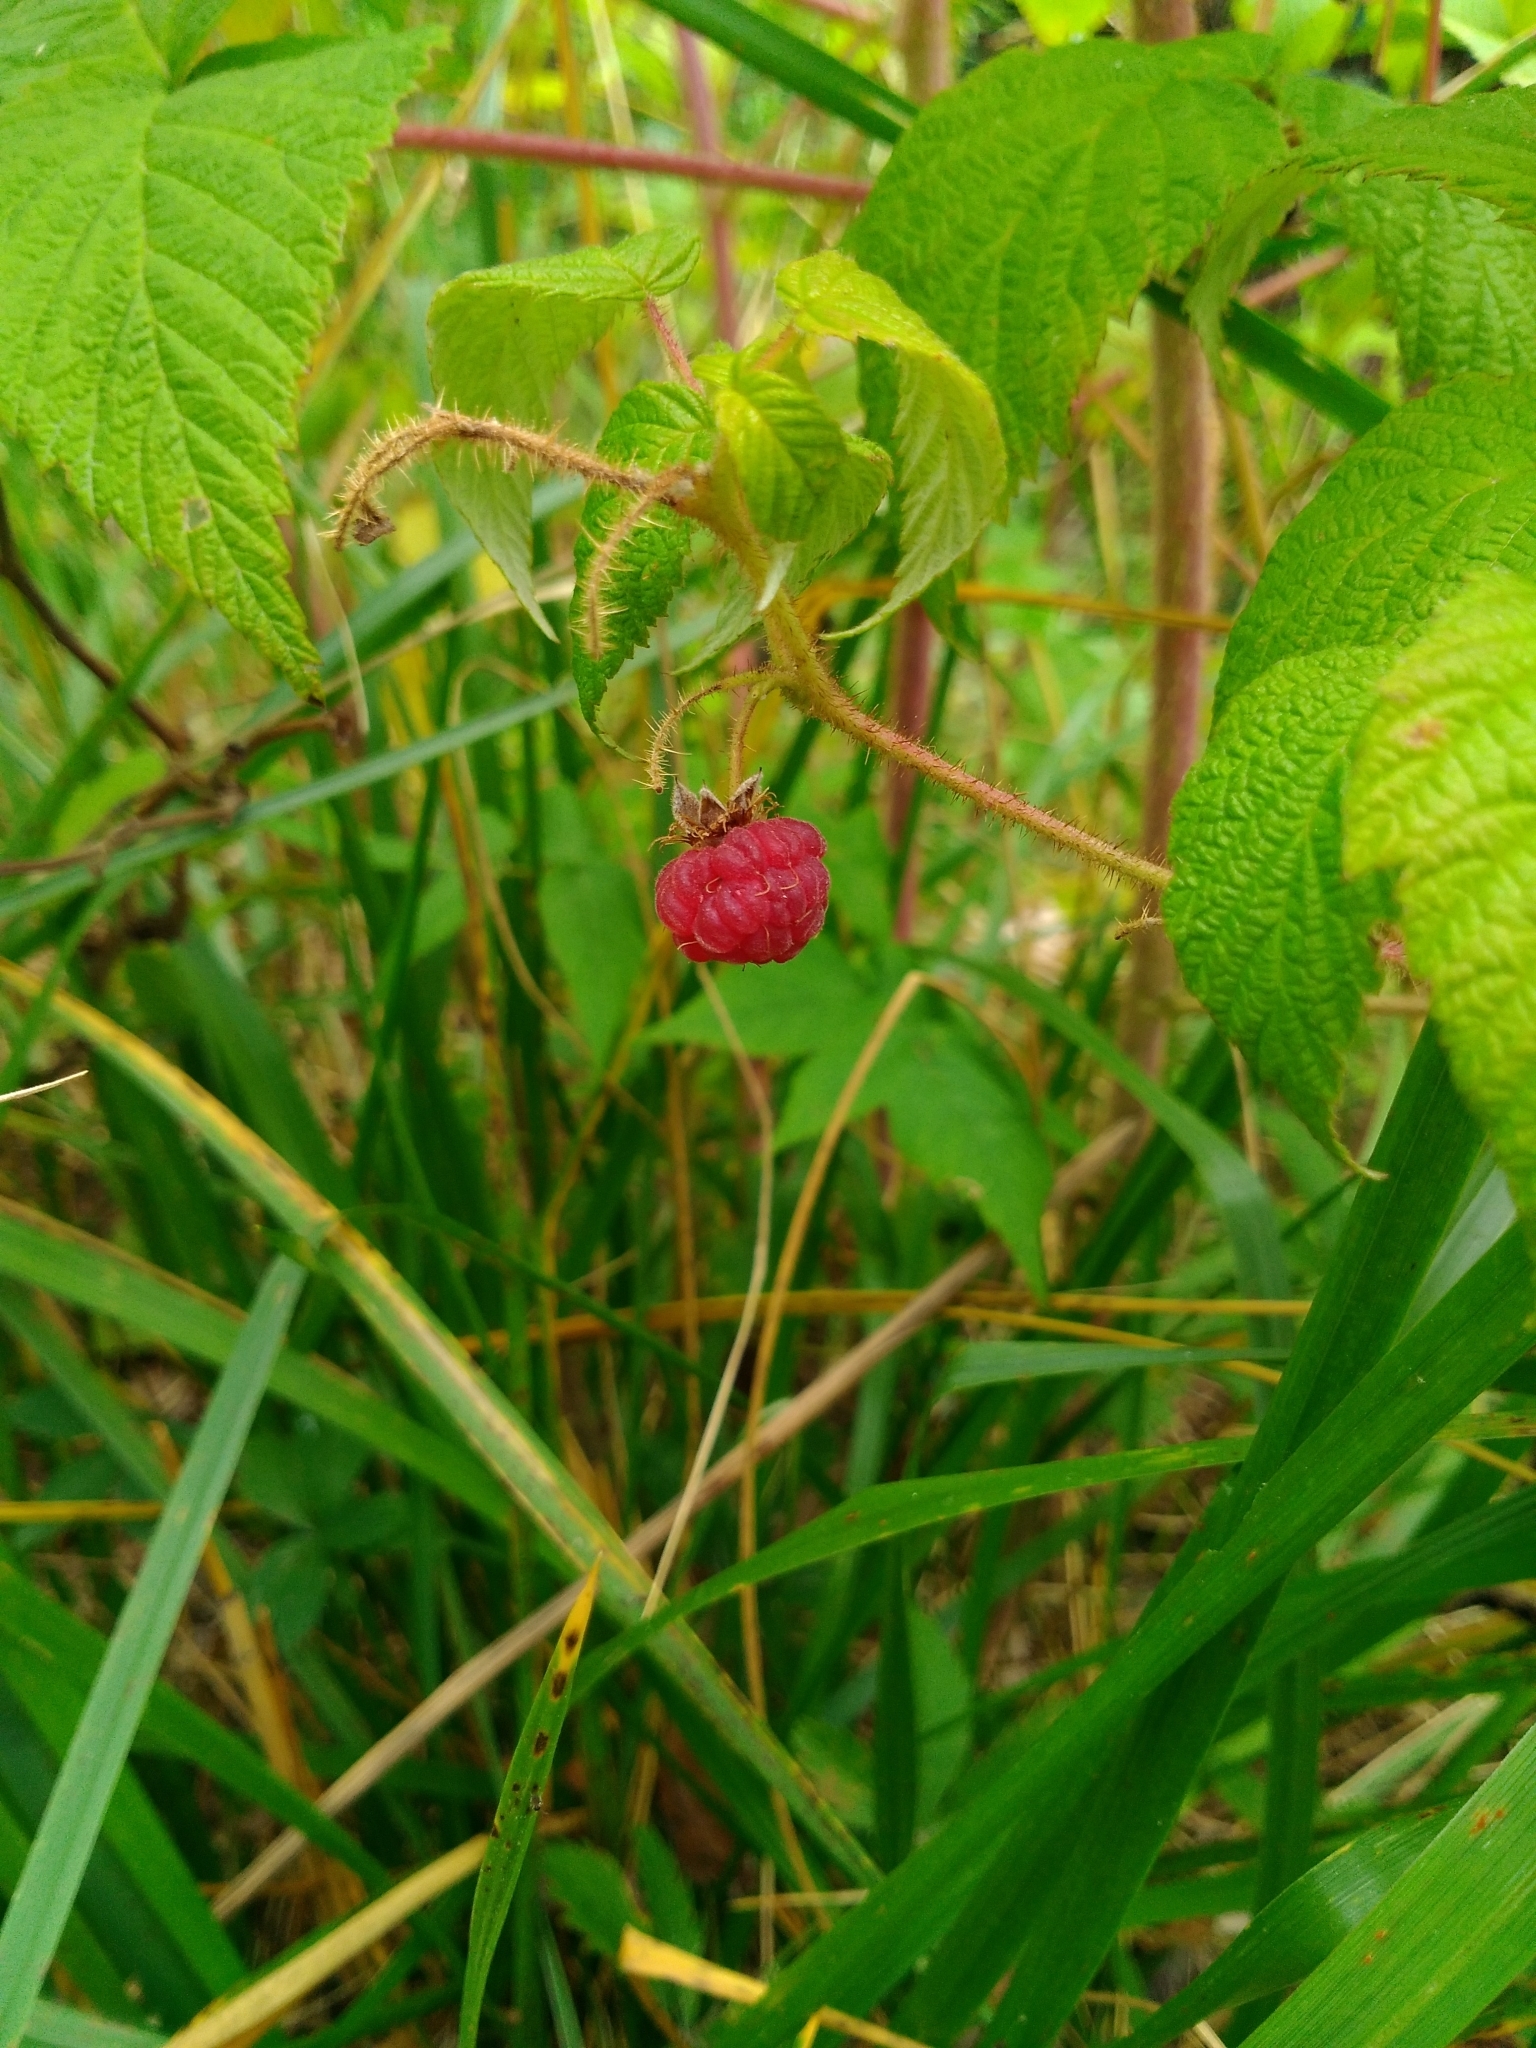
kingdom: Plantae
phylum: Tracheophyta
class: Magnoliopsida
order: Rosales
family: Rosaceae
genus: Rubus
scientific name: Rubus idaeus
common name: Raspberry
